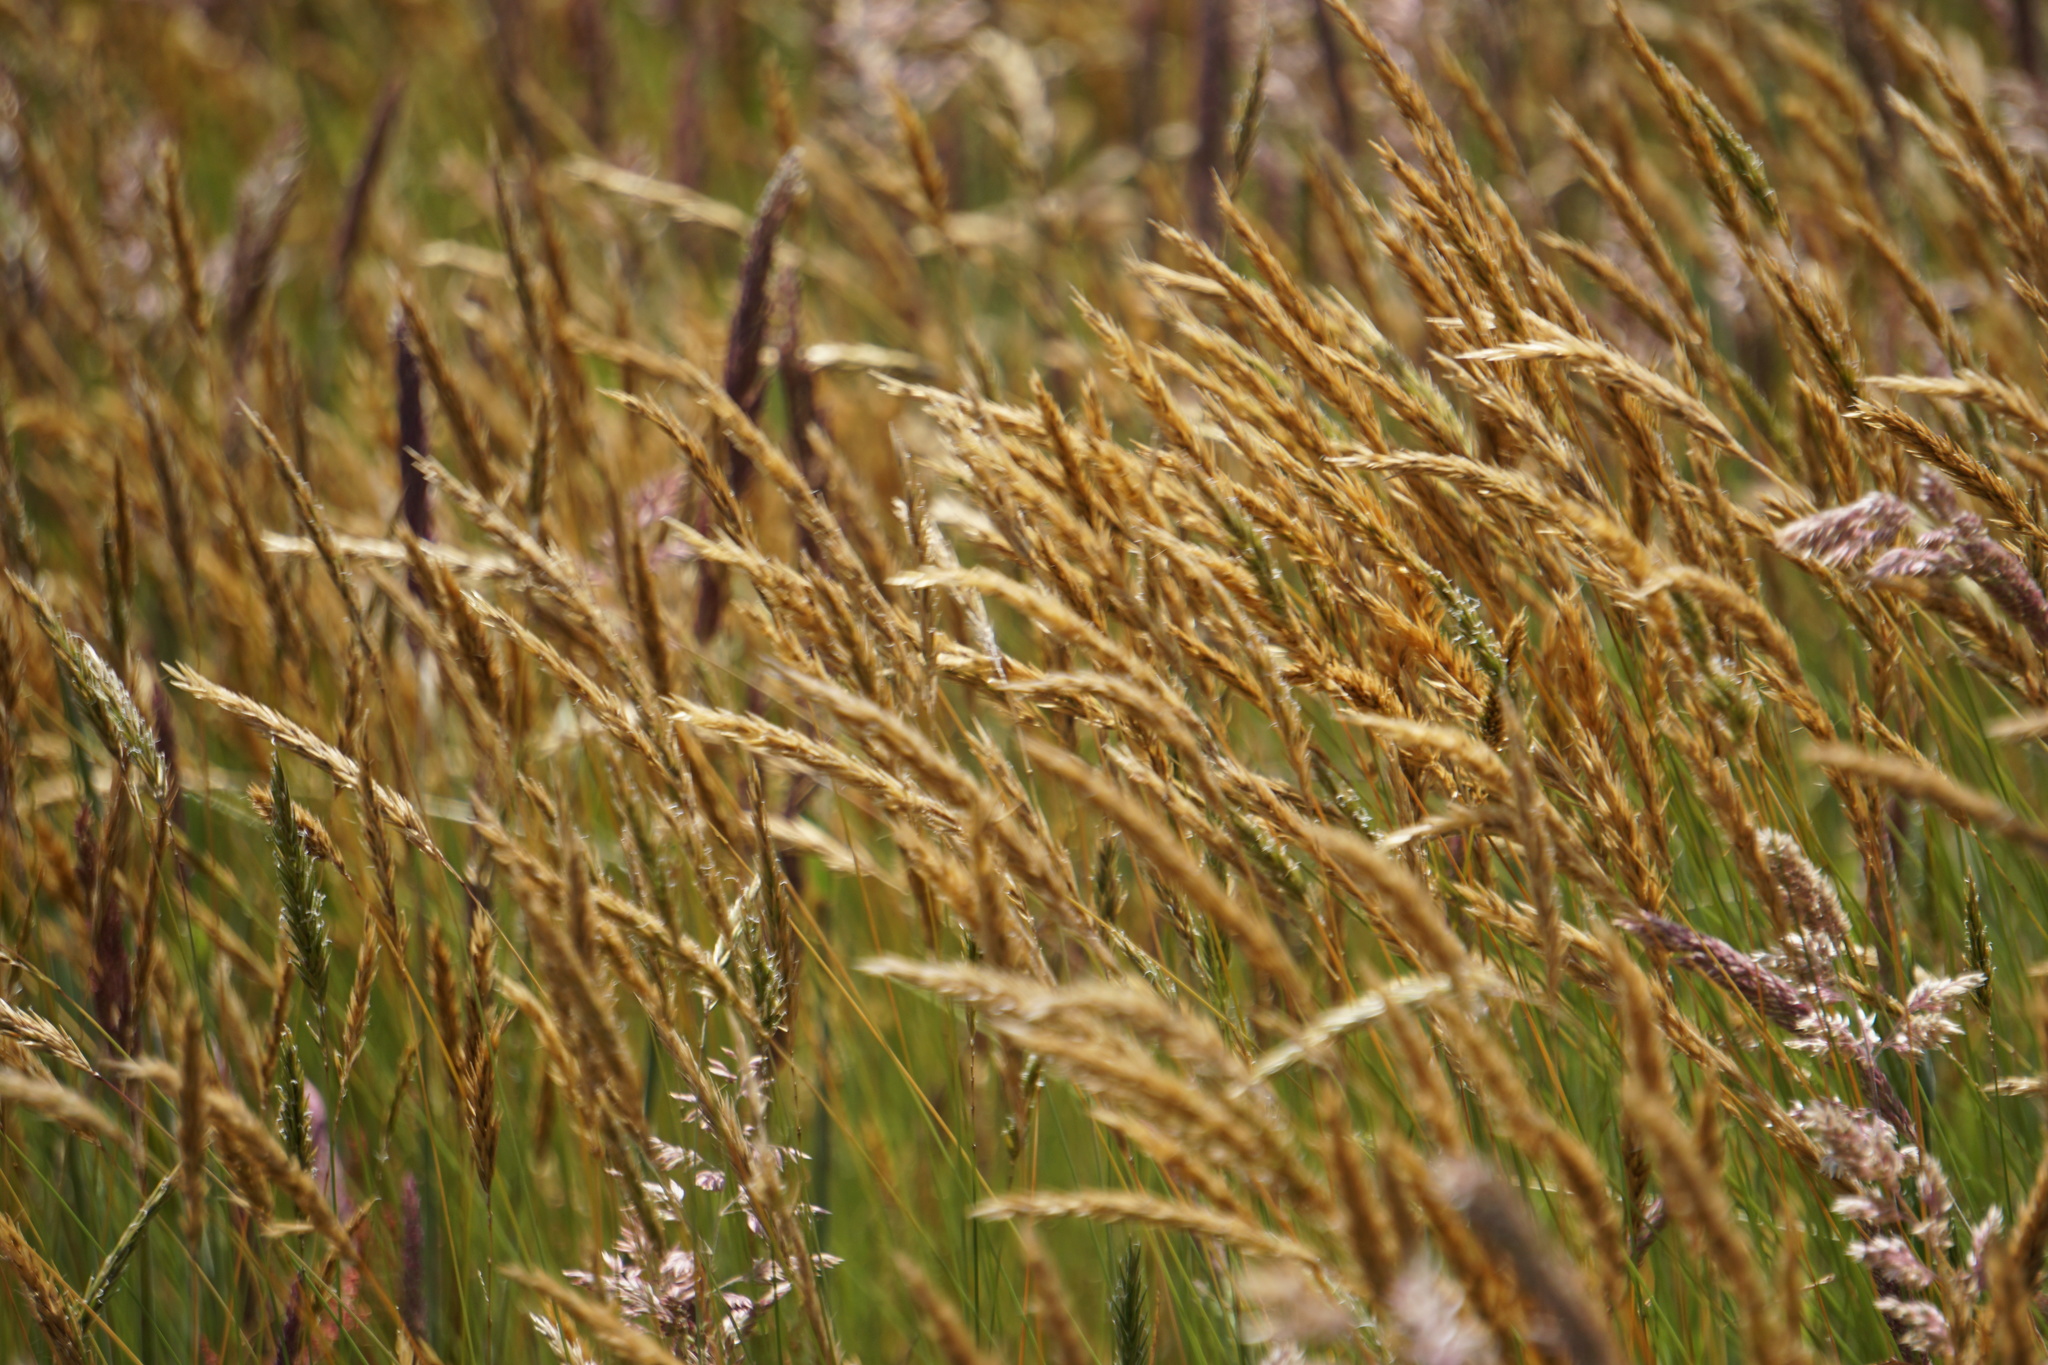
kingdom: Plantae
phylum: Tracheophyta
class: Liliopsida
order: Poales
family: Poaceae
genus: Anthoxanthum
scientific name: Anthoxanthum odoratum
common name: Sweet vernalgrass
